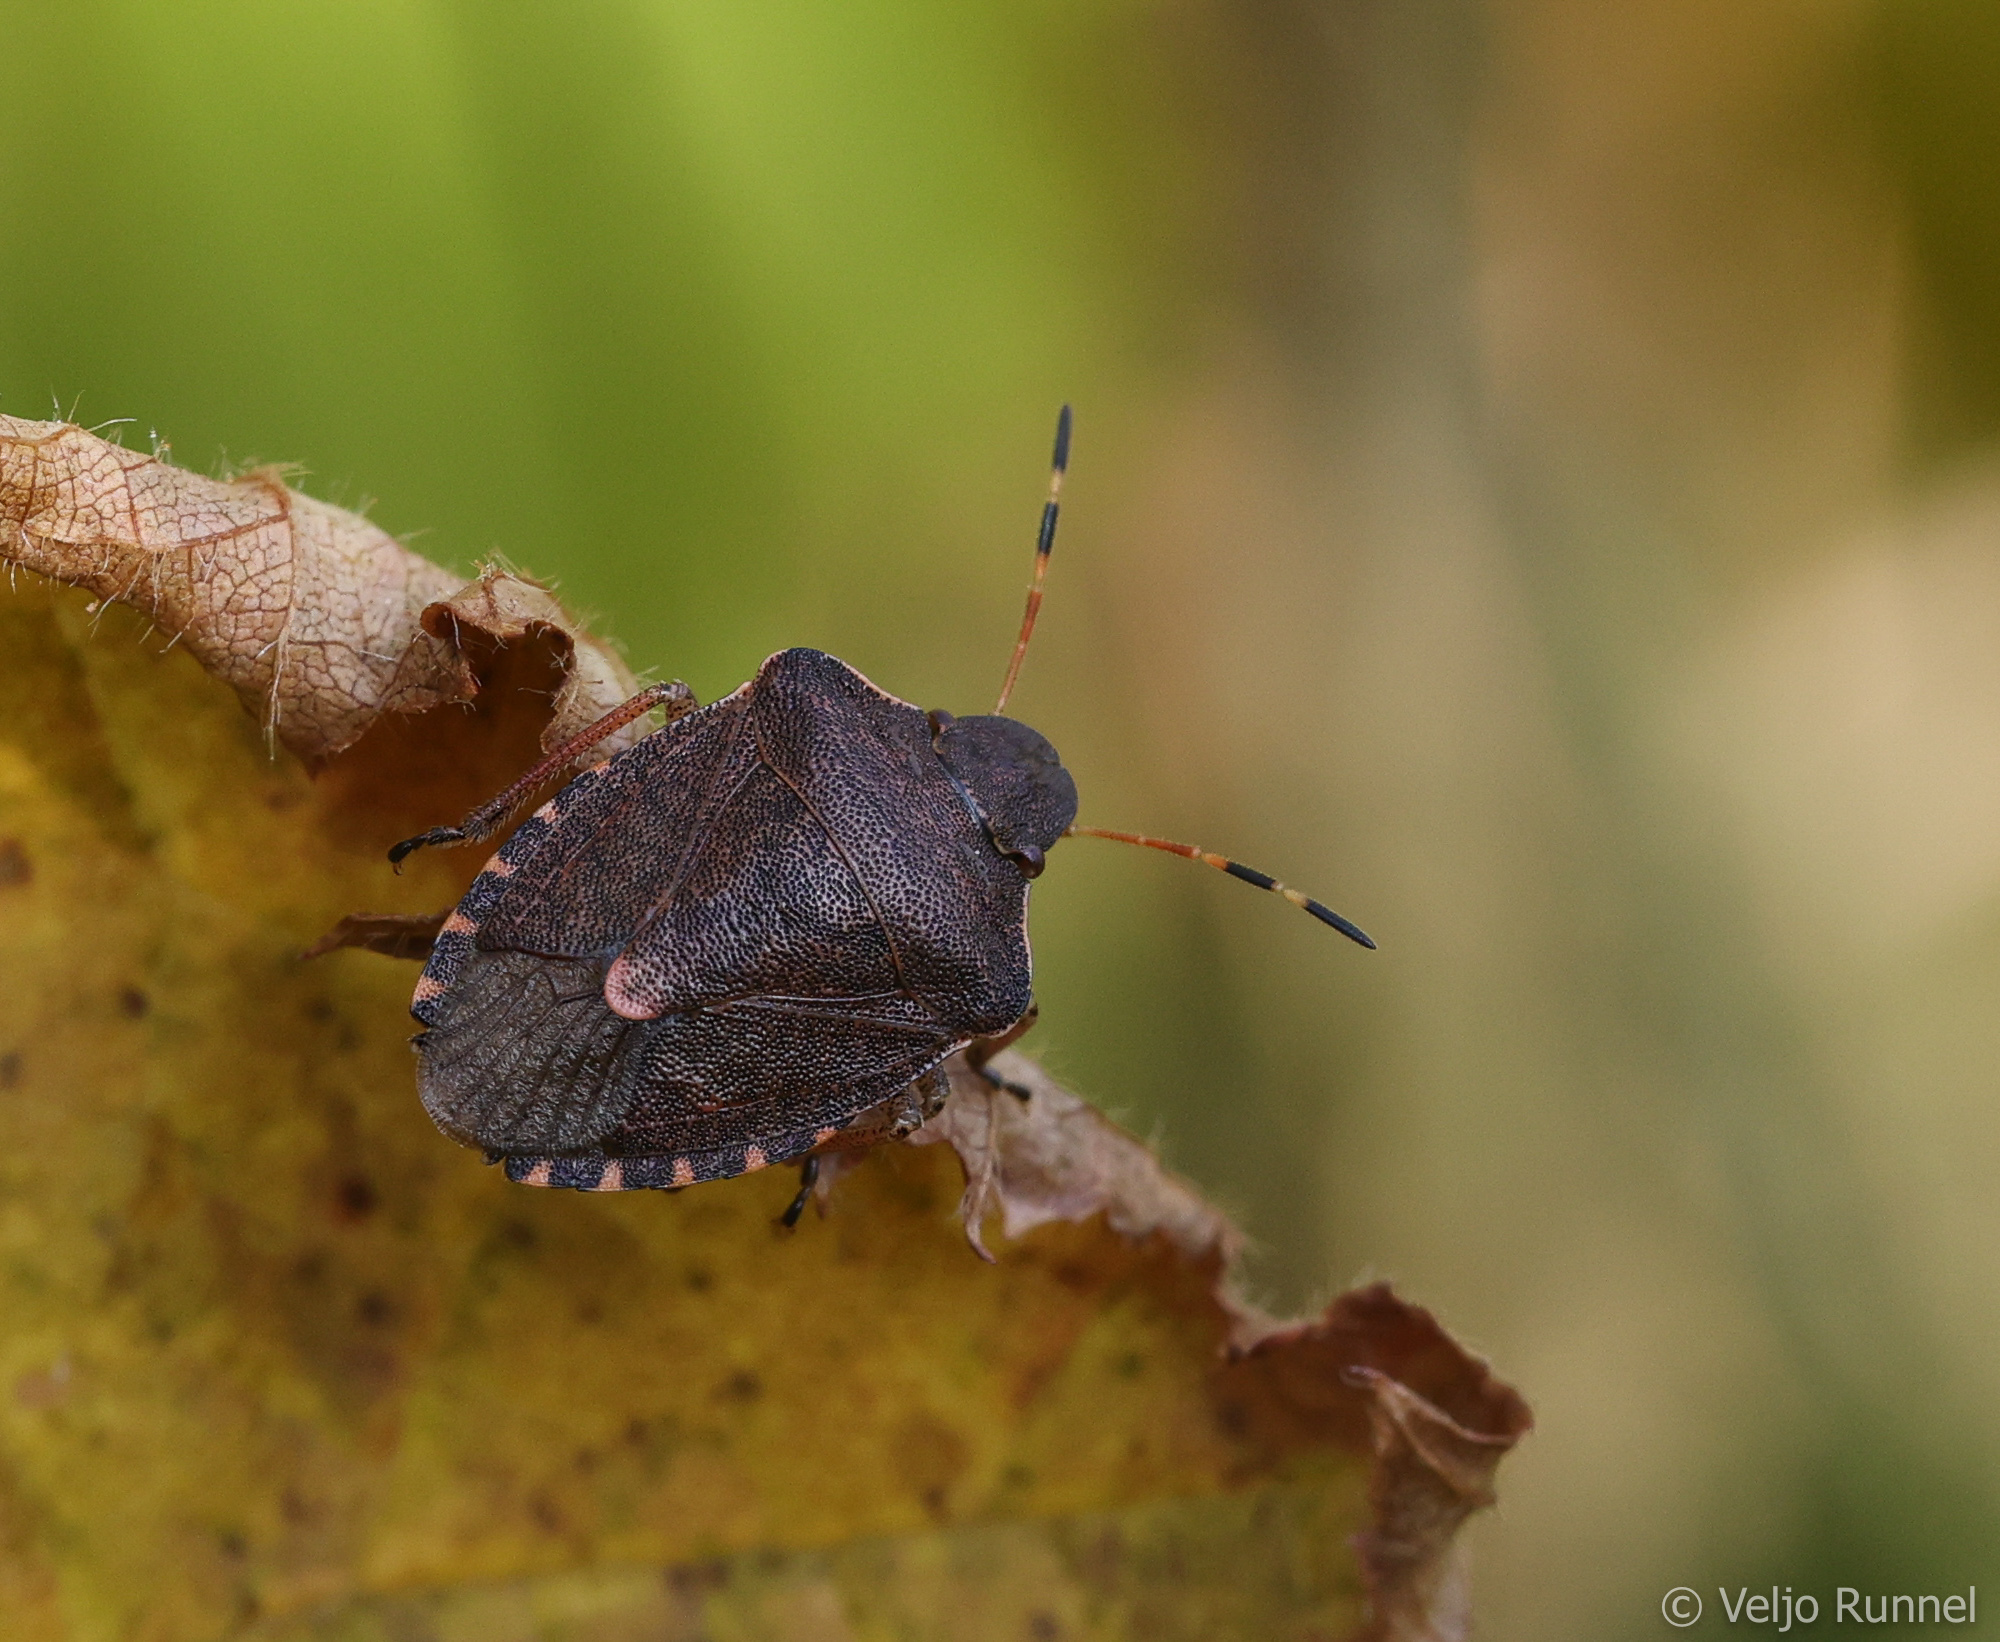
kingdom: Animalia
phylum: Arthropoda
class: Insecta
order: Hemiptera
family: Pentatomidae
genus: Holcostethus
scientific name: Holcostethus strictus
